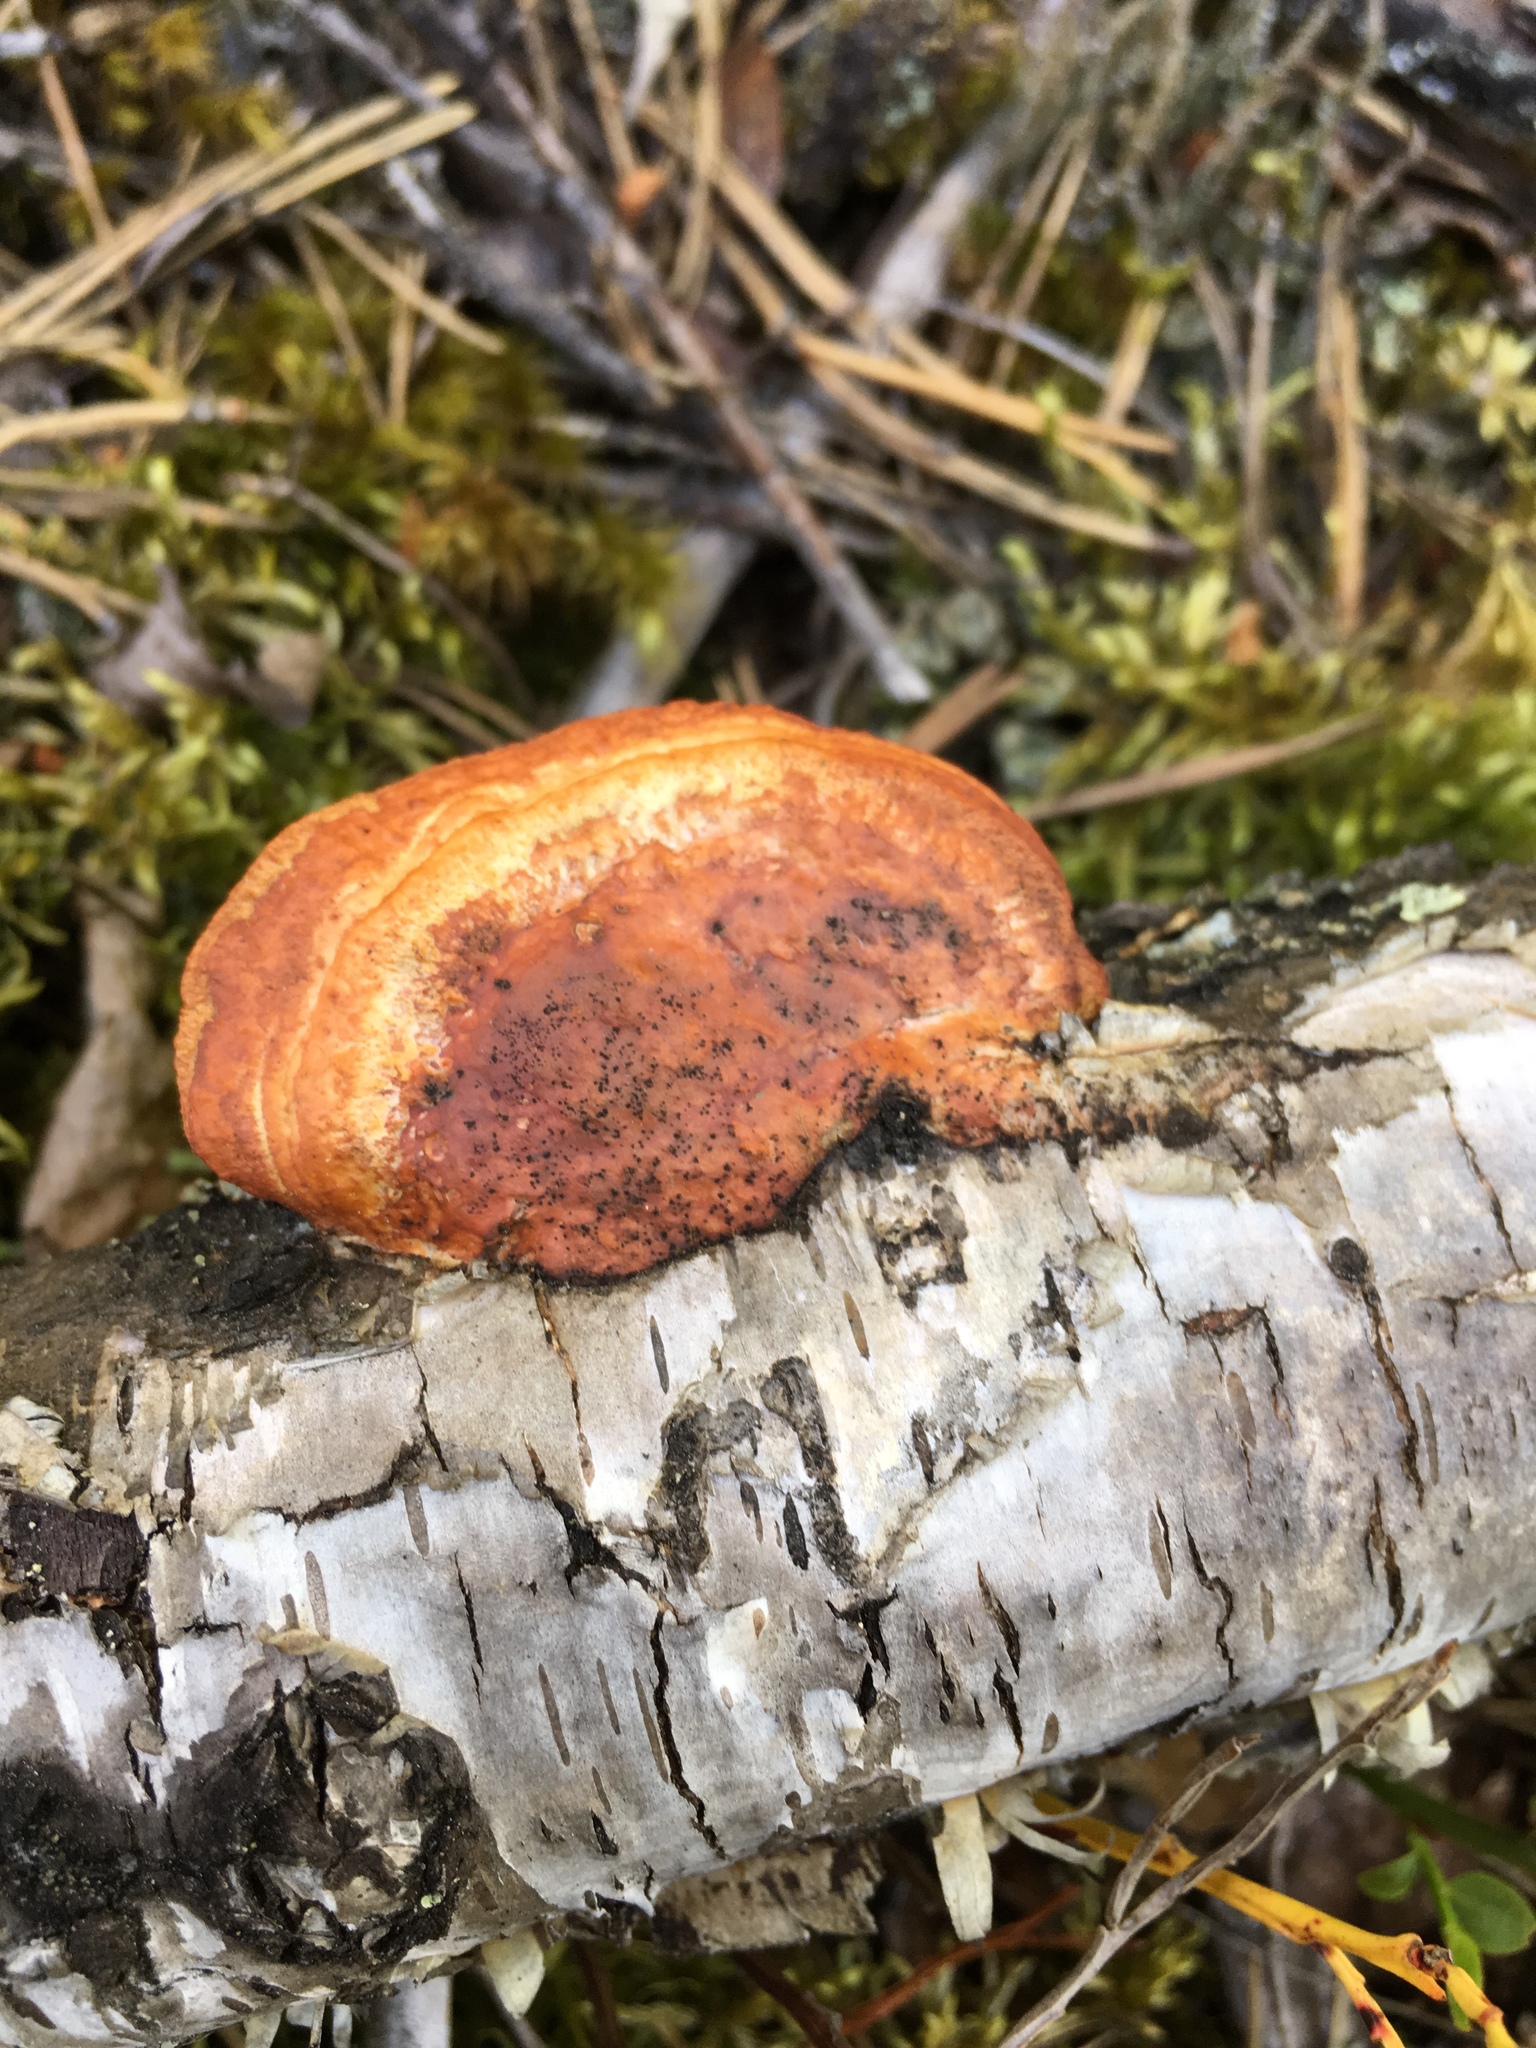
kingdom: Fungi
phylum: Basidiomycota
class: Agaricomycetes
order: Polyporales
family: Polyporaceae
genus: Trametes
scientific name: Trametes cinnabarina
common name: Northern cinnabar polypore
